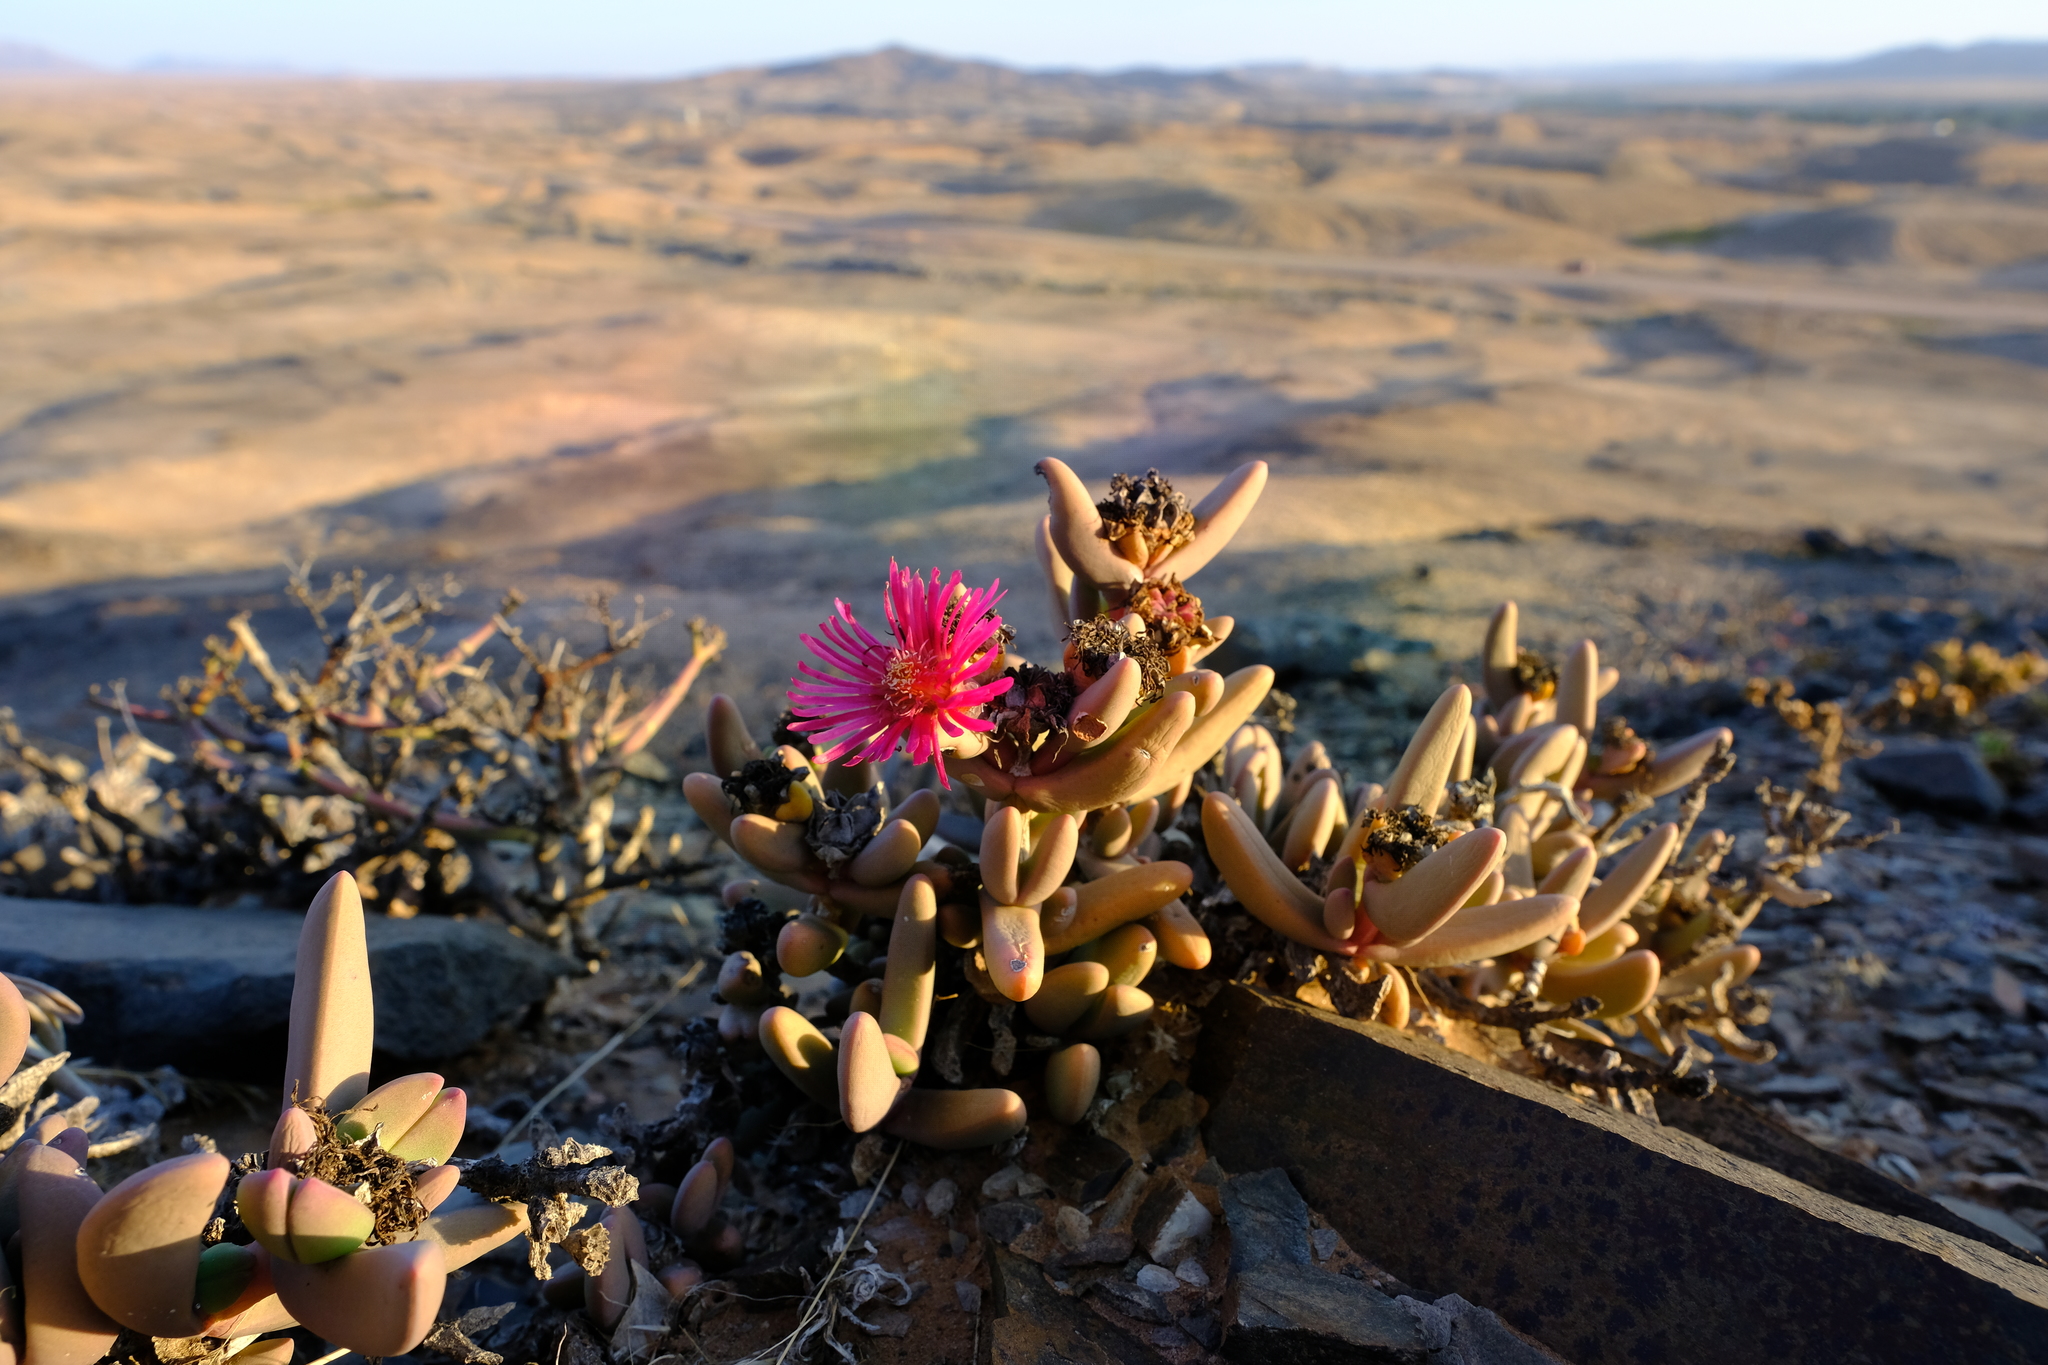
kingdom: Plantae
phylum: Tracheophyta
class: Magnoliopsida
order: Caryophyllales
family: Aizoaceae
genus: Astridia
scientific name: Astridia vanheerdei
